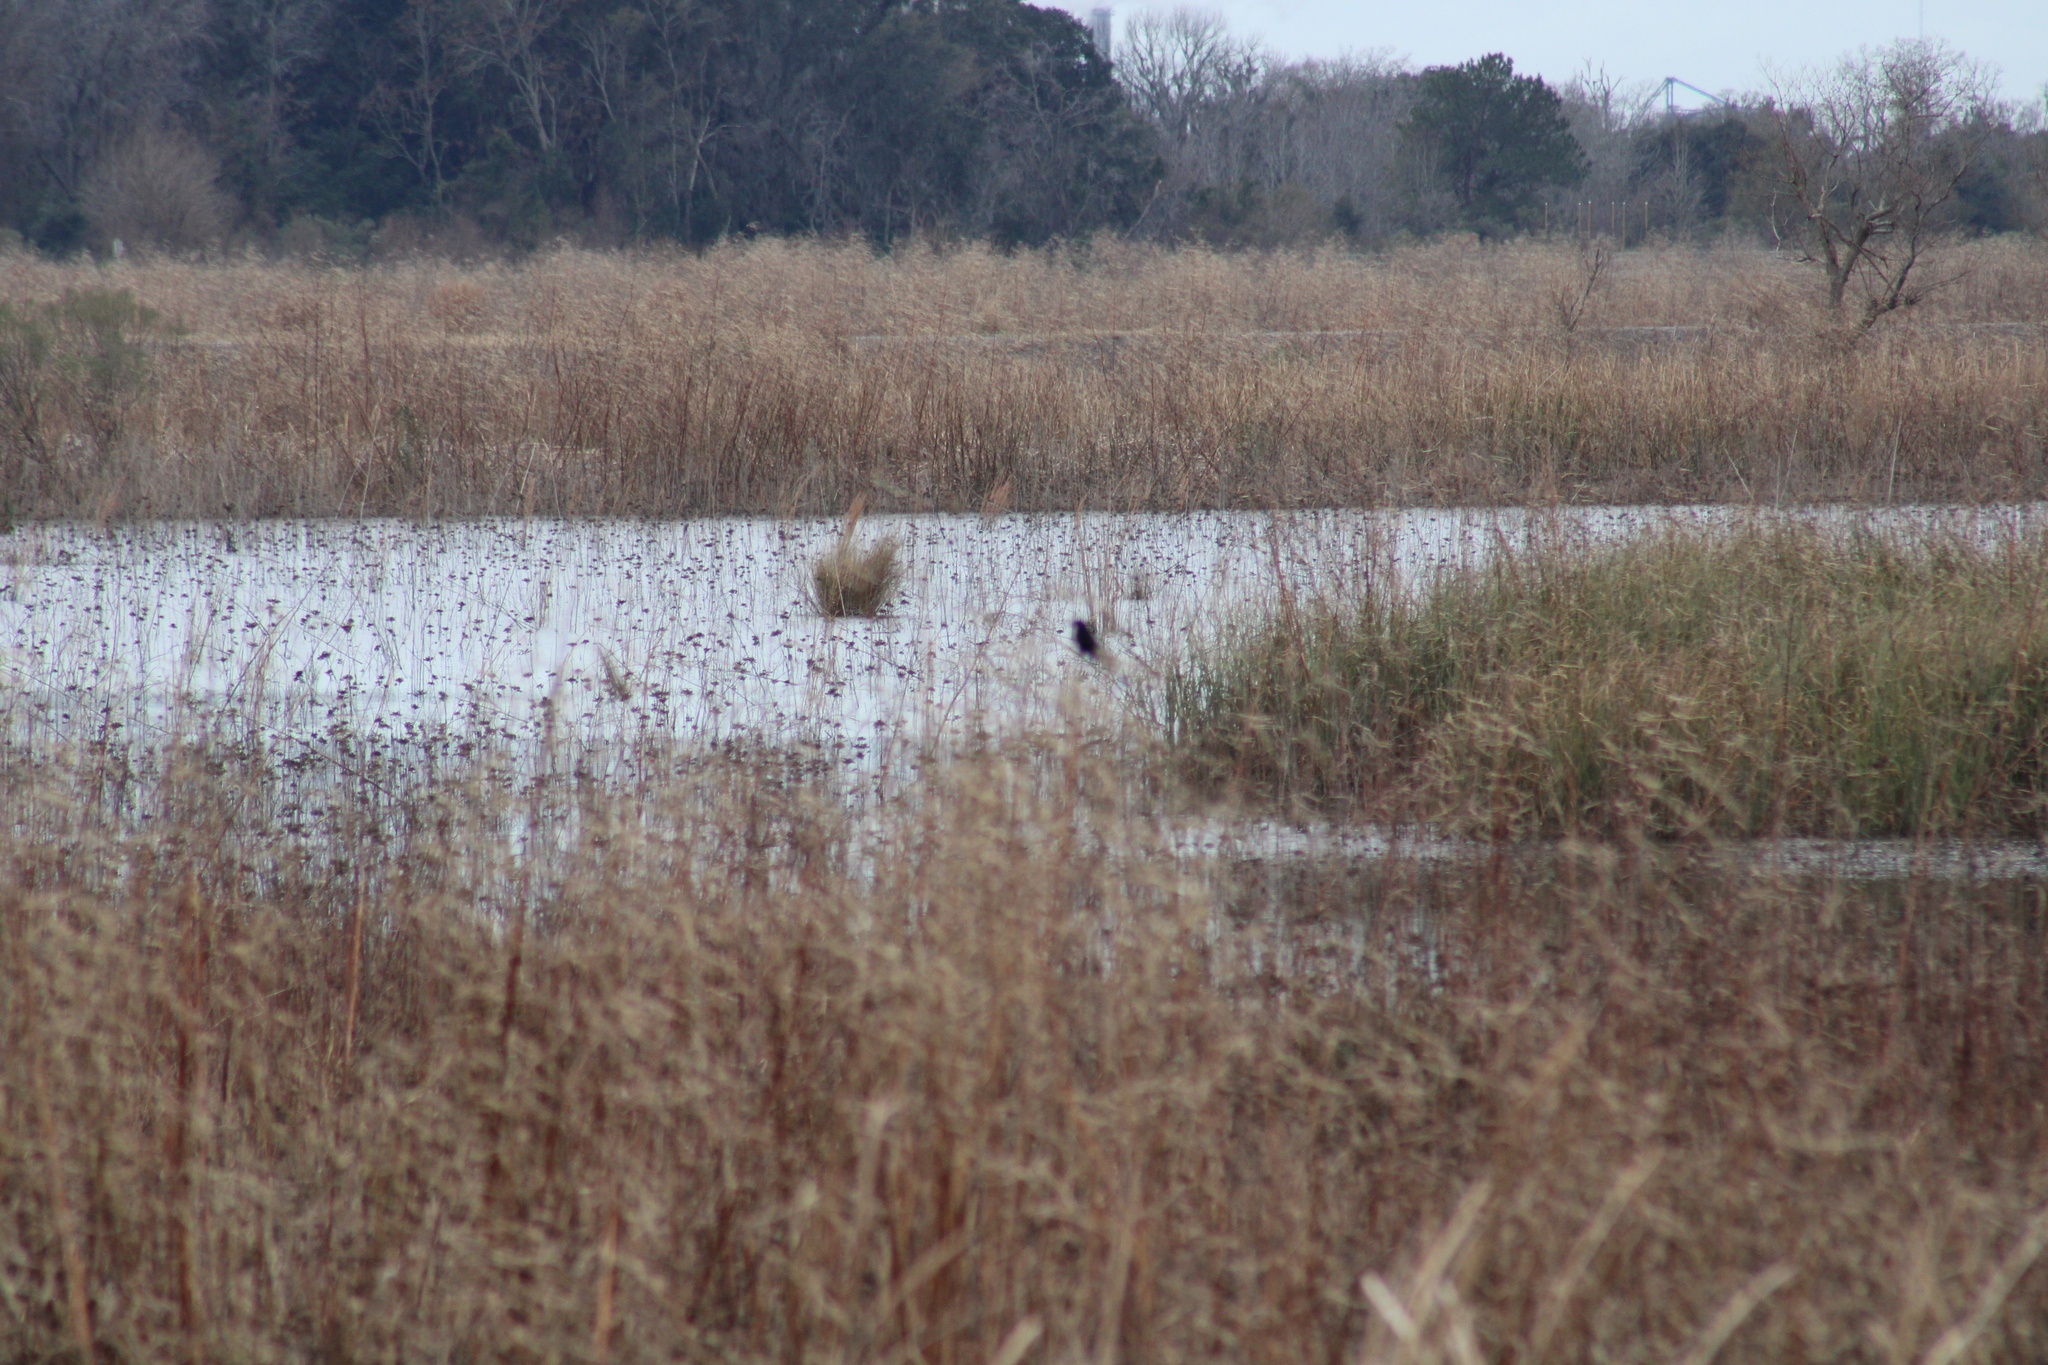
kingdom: Animalia
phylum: Chordata
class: Aves
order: Passeriformes
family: Icteridae
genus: Agelaius
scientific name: Agelaius phoeniceus
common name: Red-winged blackbird
